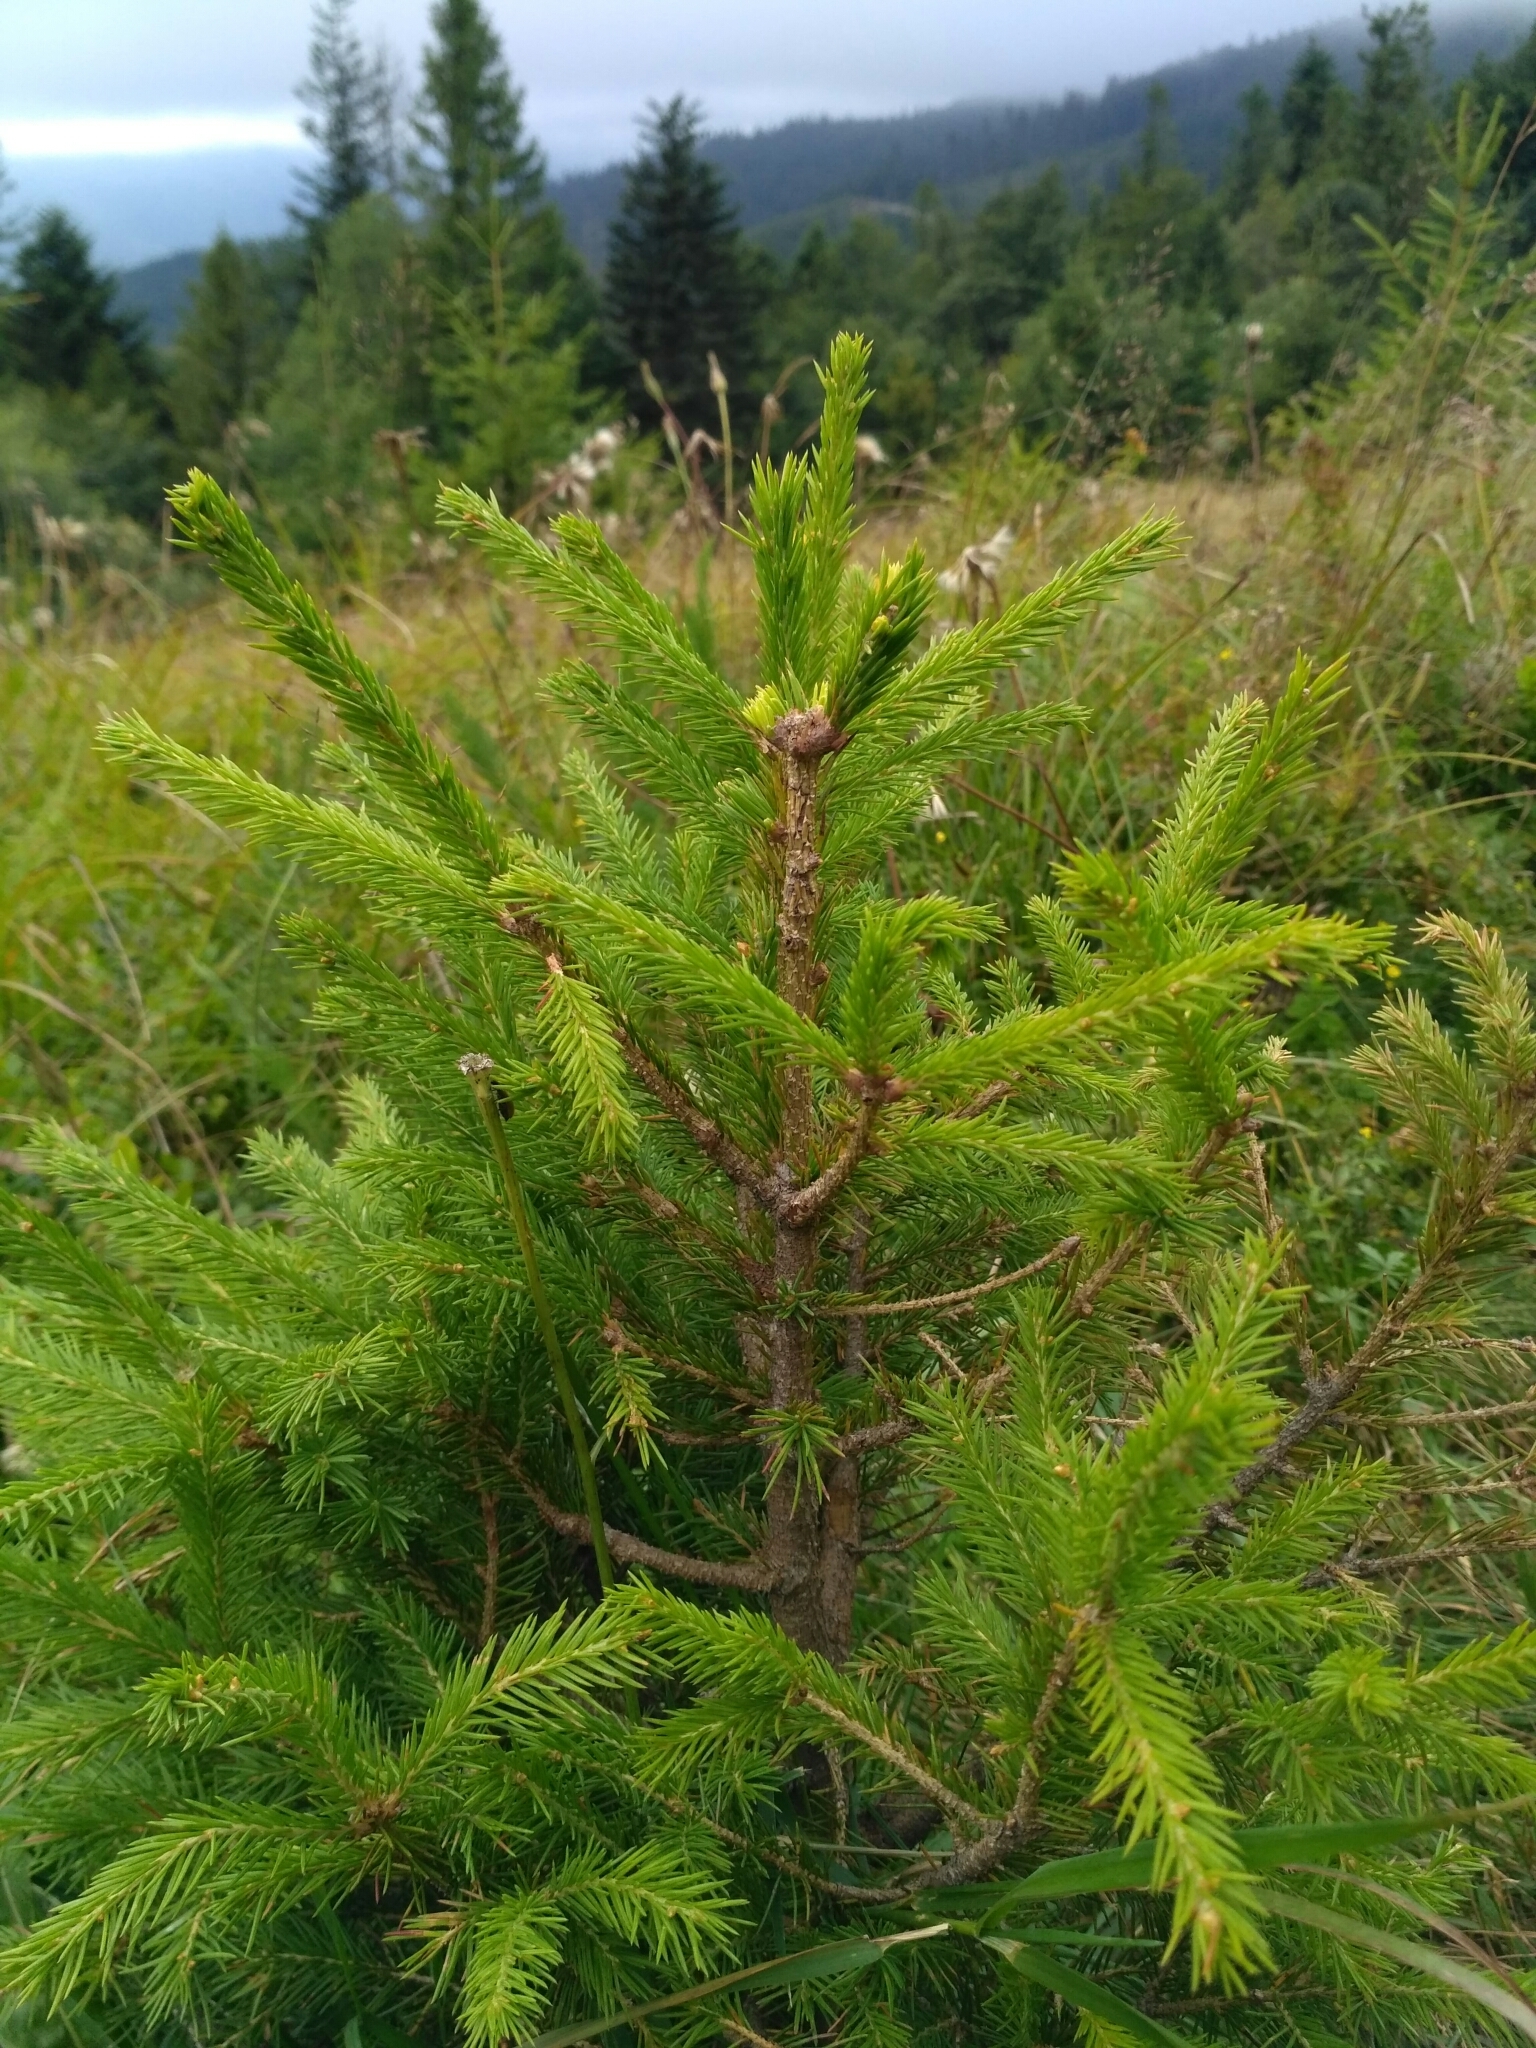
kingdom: Plantae
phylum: Tracheophyta
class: Pinopsida
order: Pinales
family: Pinaceae
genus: Picea
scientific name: Picea abies
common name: Norway spruce
